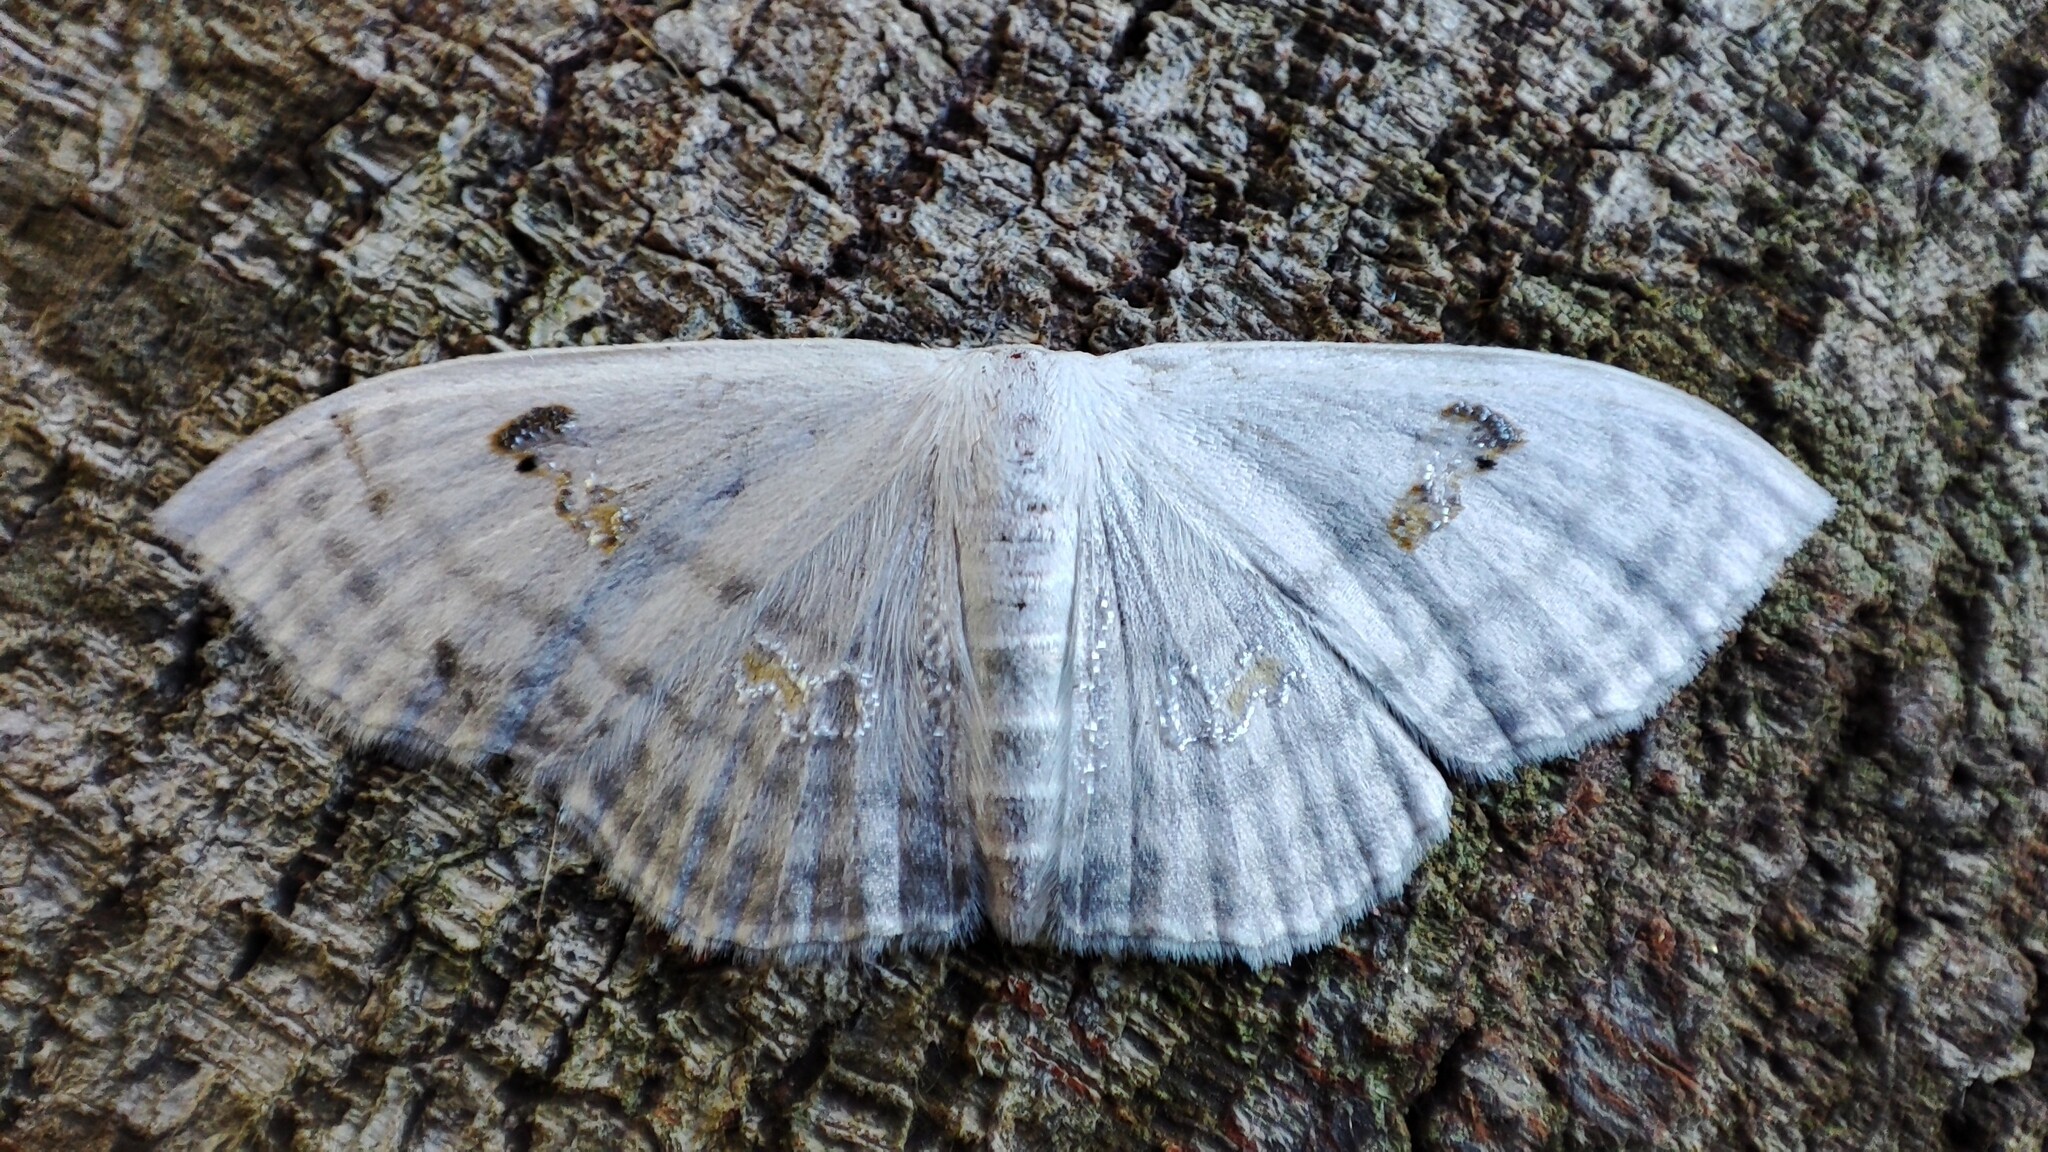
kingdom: Animalia
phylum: Arthropoda
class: Insecta
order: Lepidoptera
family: Geometridae
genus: Problepsis
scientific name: Problepsis aegretta
